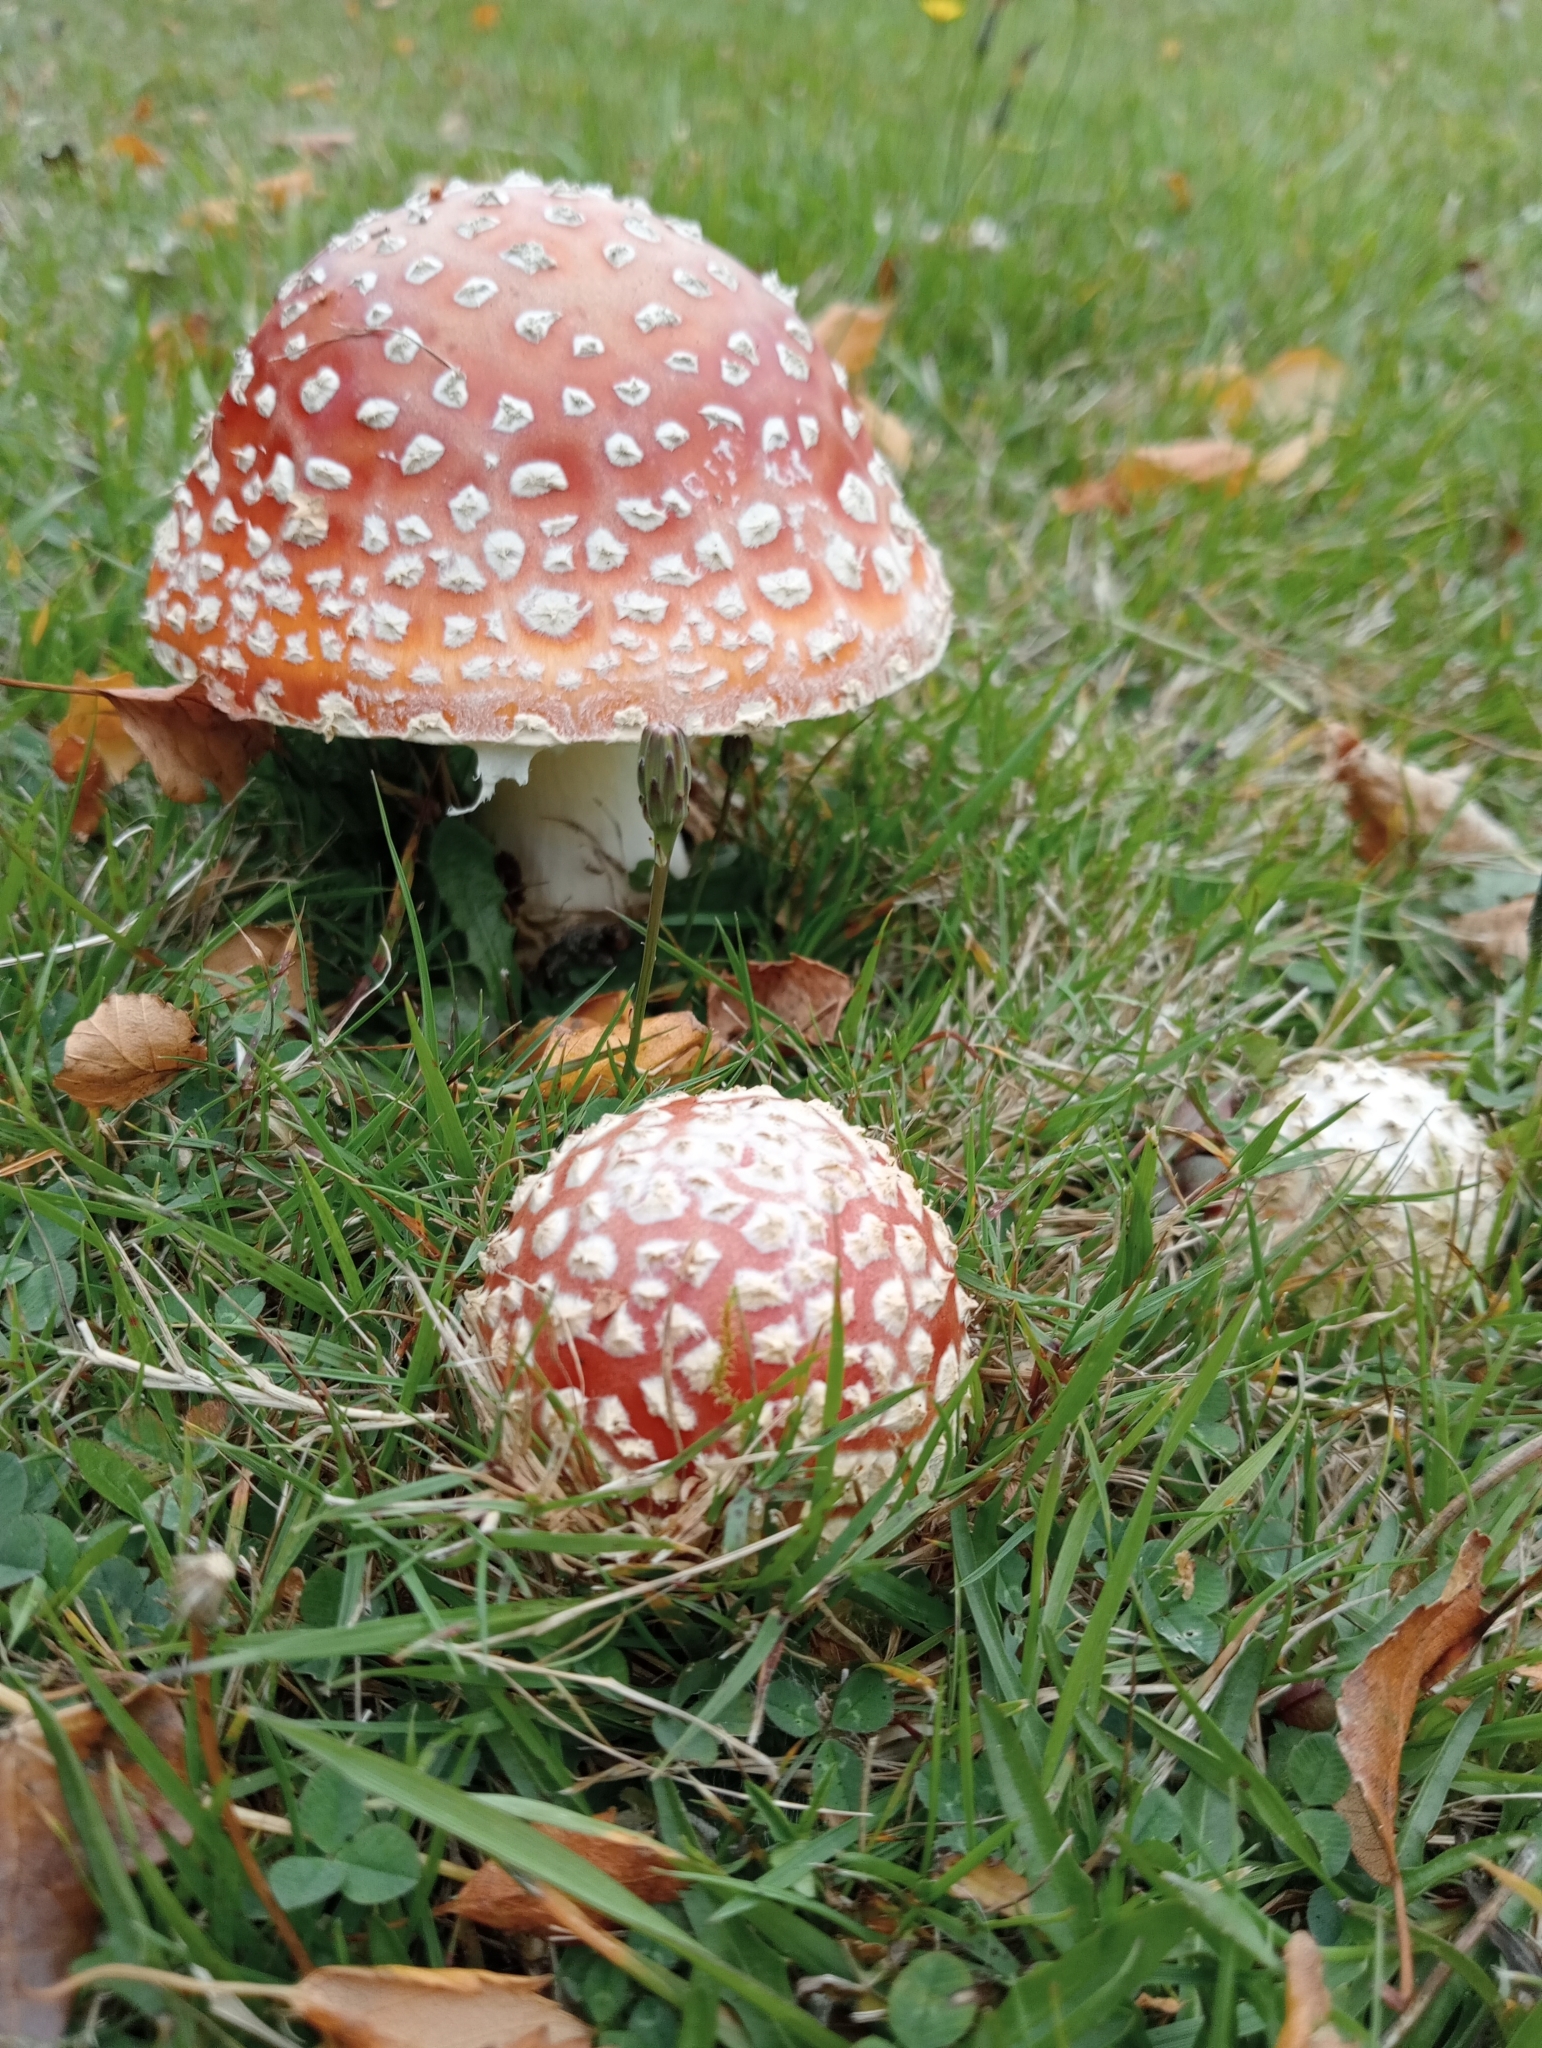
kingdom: Fungi
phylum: Basidiomycota
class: Agaricomycetes
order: Agaricales
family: Amanitaceae
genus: Amanita
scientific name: Amanita muscaria
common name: Fly agaric
